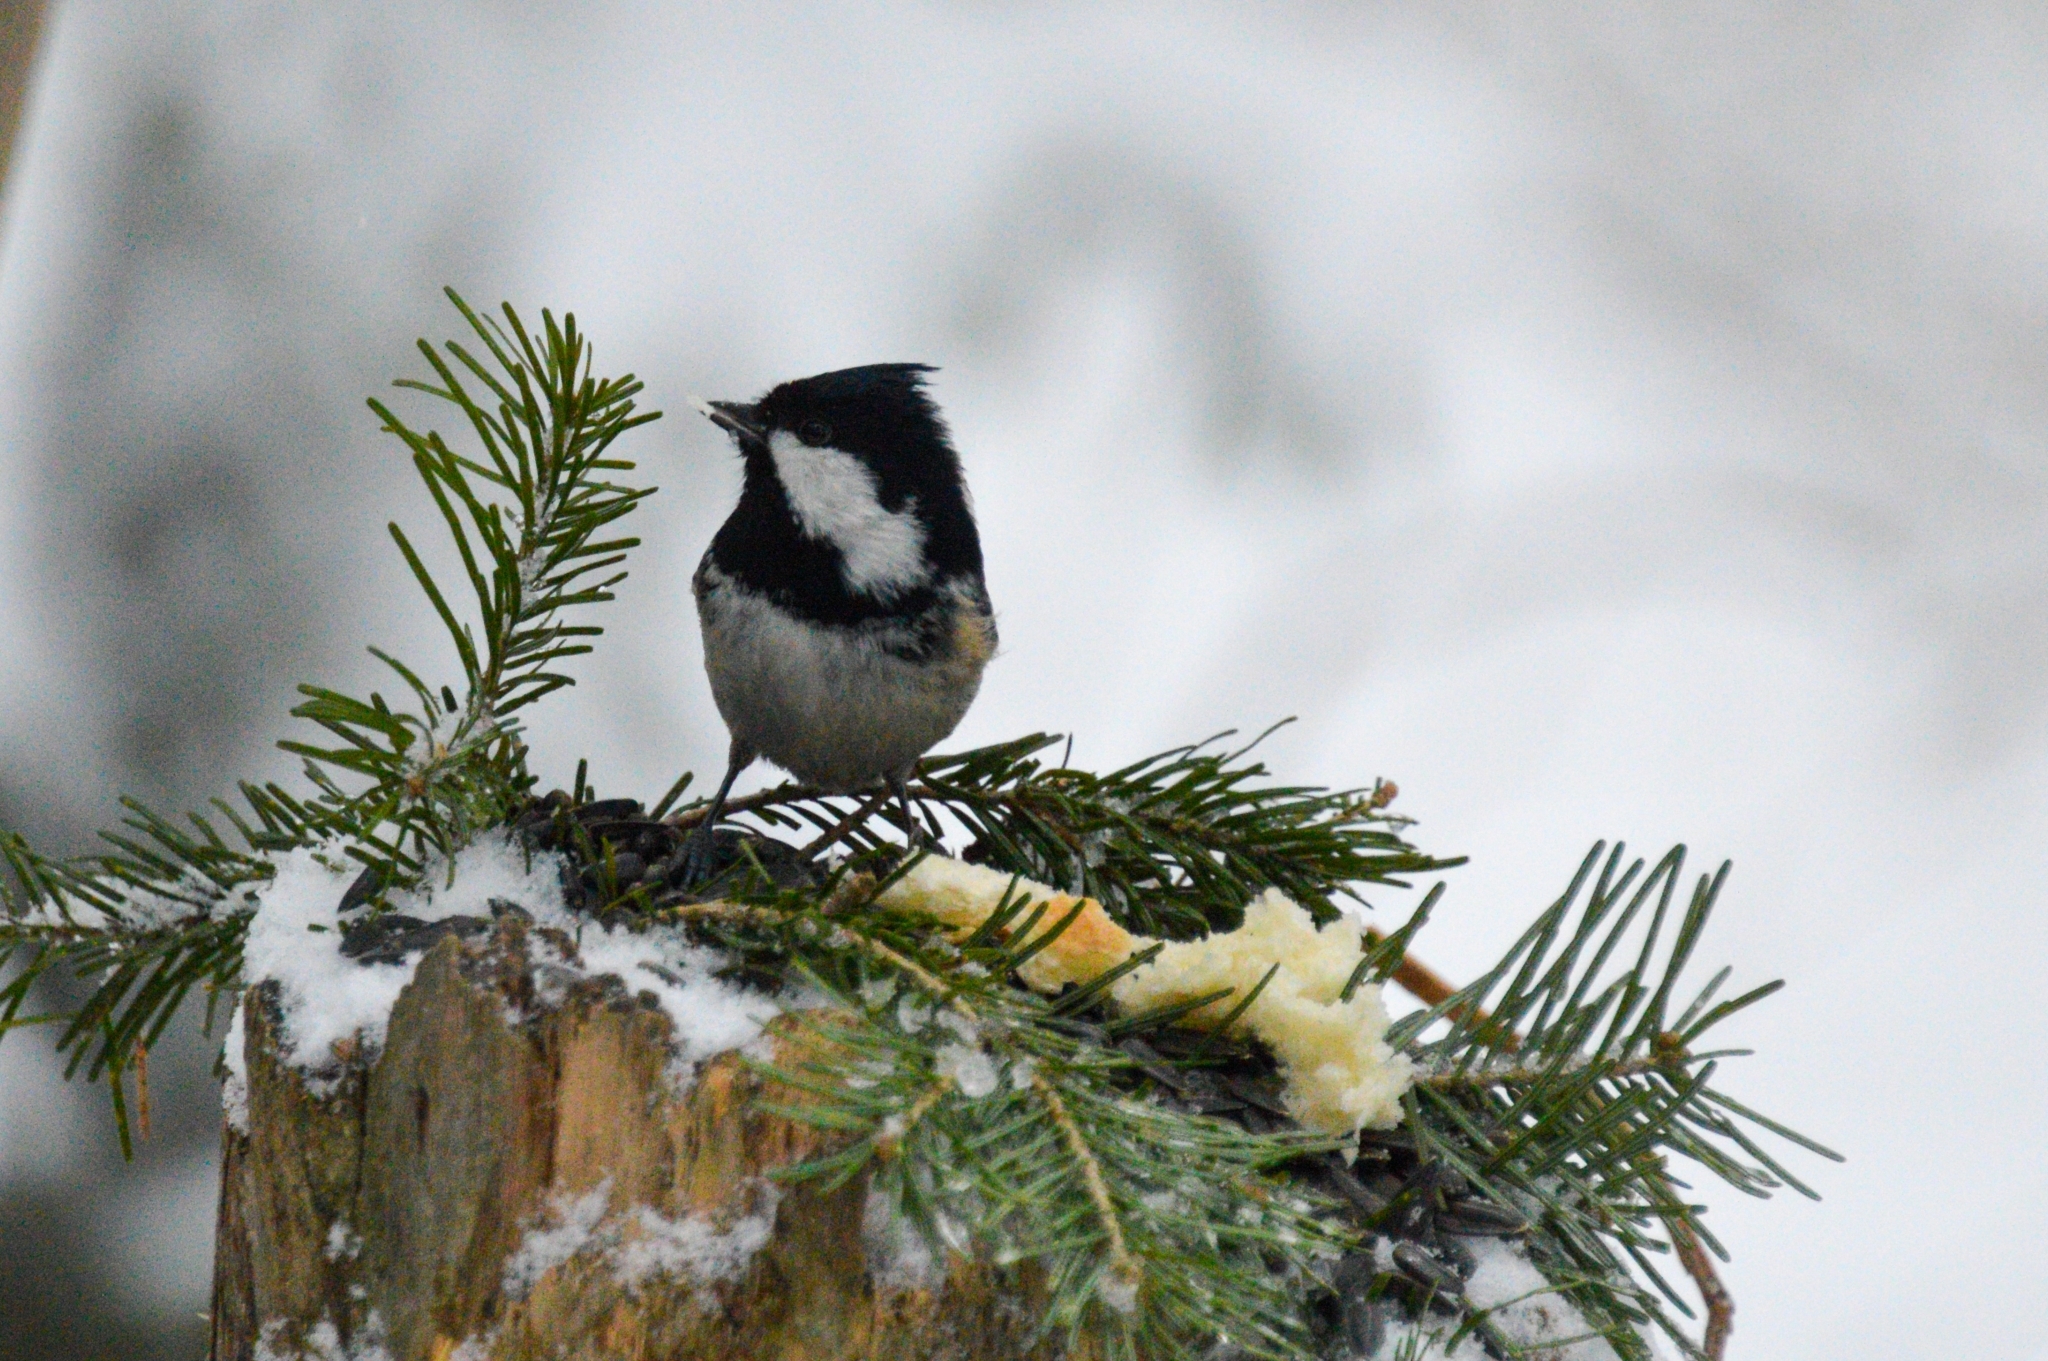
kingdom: Animalia
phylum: Chordata
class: Aves
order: Passeriformes
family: Paridae
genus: Periparus
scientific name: Periparus ater
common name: Coal tit
